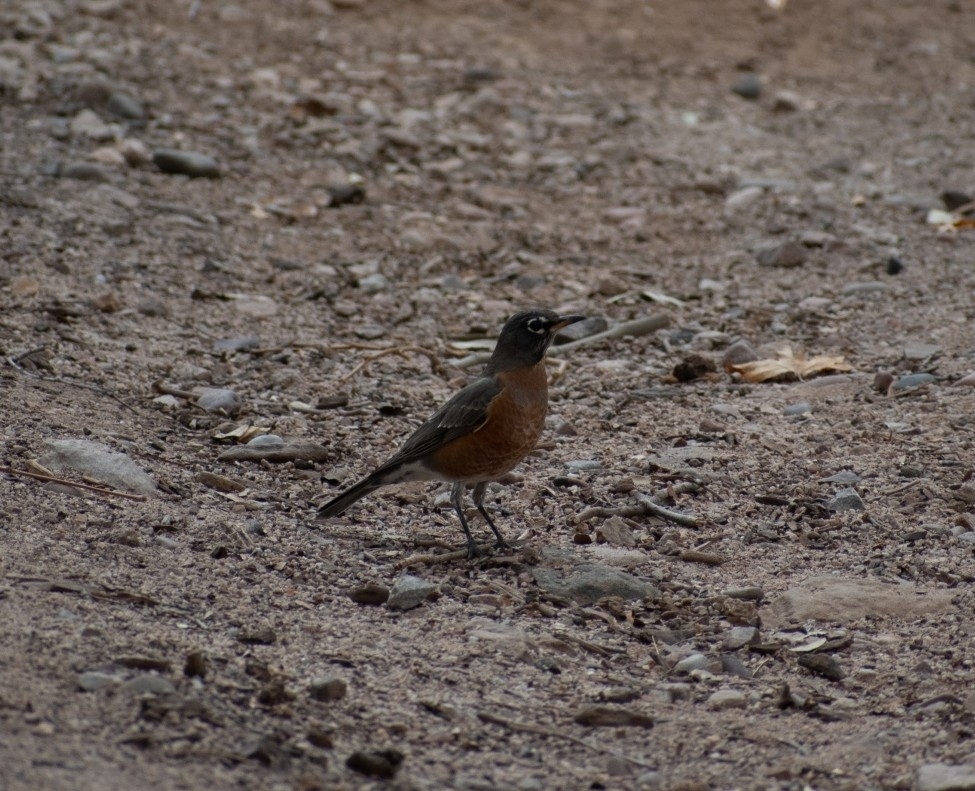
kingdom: Animalia
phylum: Chordata
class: Aves
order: Passeriformes
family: Turdidae
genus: Turdus
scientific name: Turdus migratorius
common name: American robin
